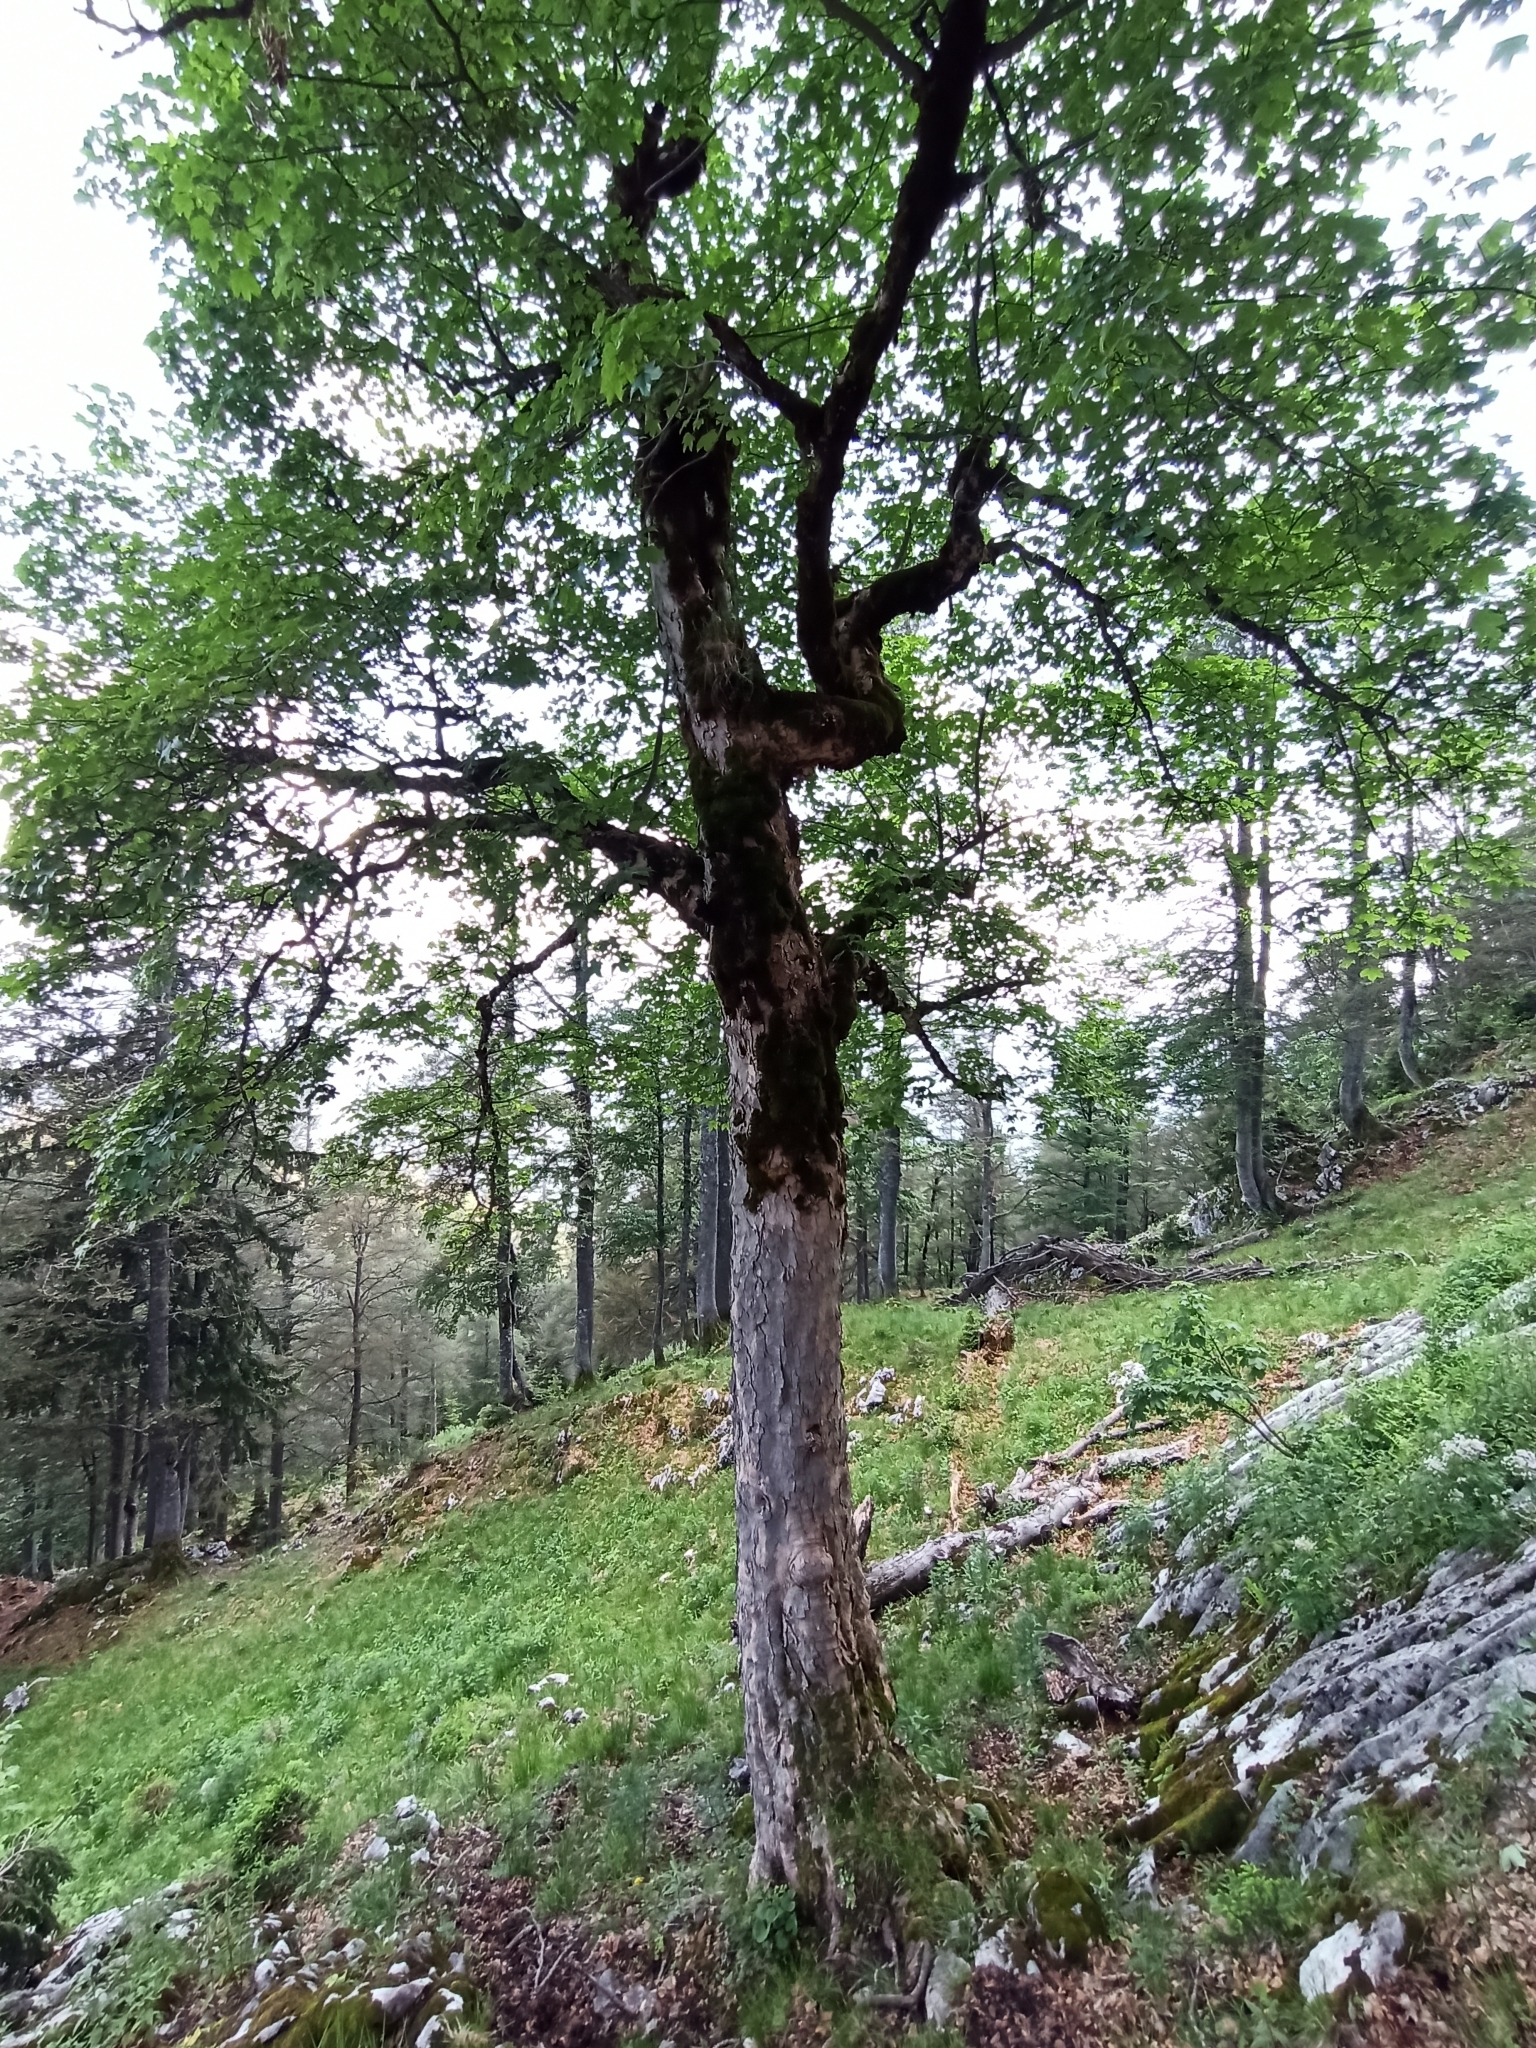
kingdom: Plantae
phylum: Tracheophyta
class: Magnoliopsida
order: Sapindales
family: Sapindaceae
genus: Acer
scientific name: Acer pseudoplatanus
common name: Sycamore
